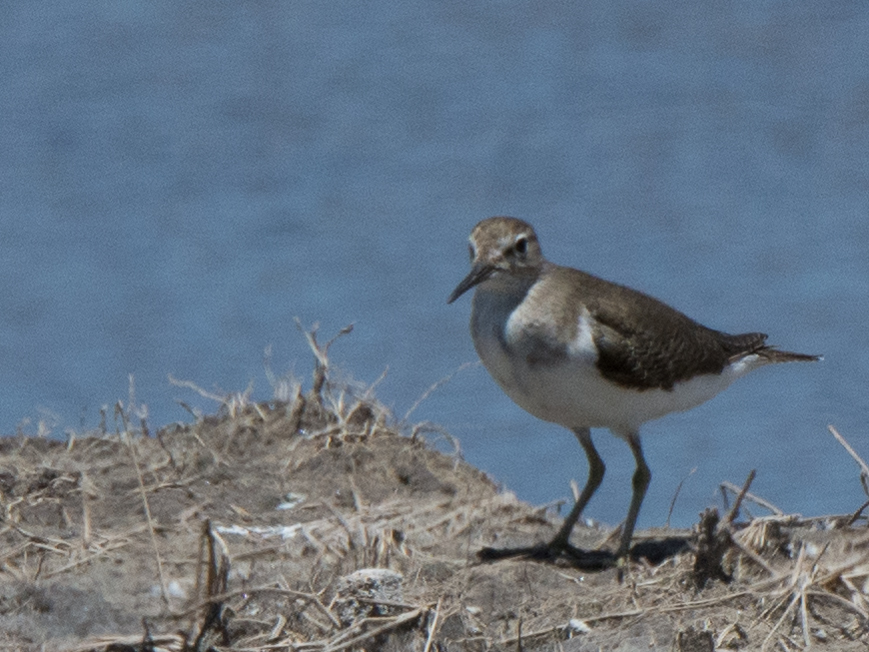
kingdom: Animalia
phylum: Chordata
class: Aves
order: Charadriiformes
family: Scolopacidae
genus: Actitis
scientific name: Actitis hypoleucos
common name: Common sandpiper
